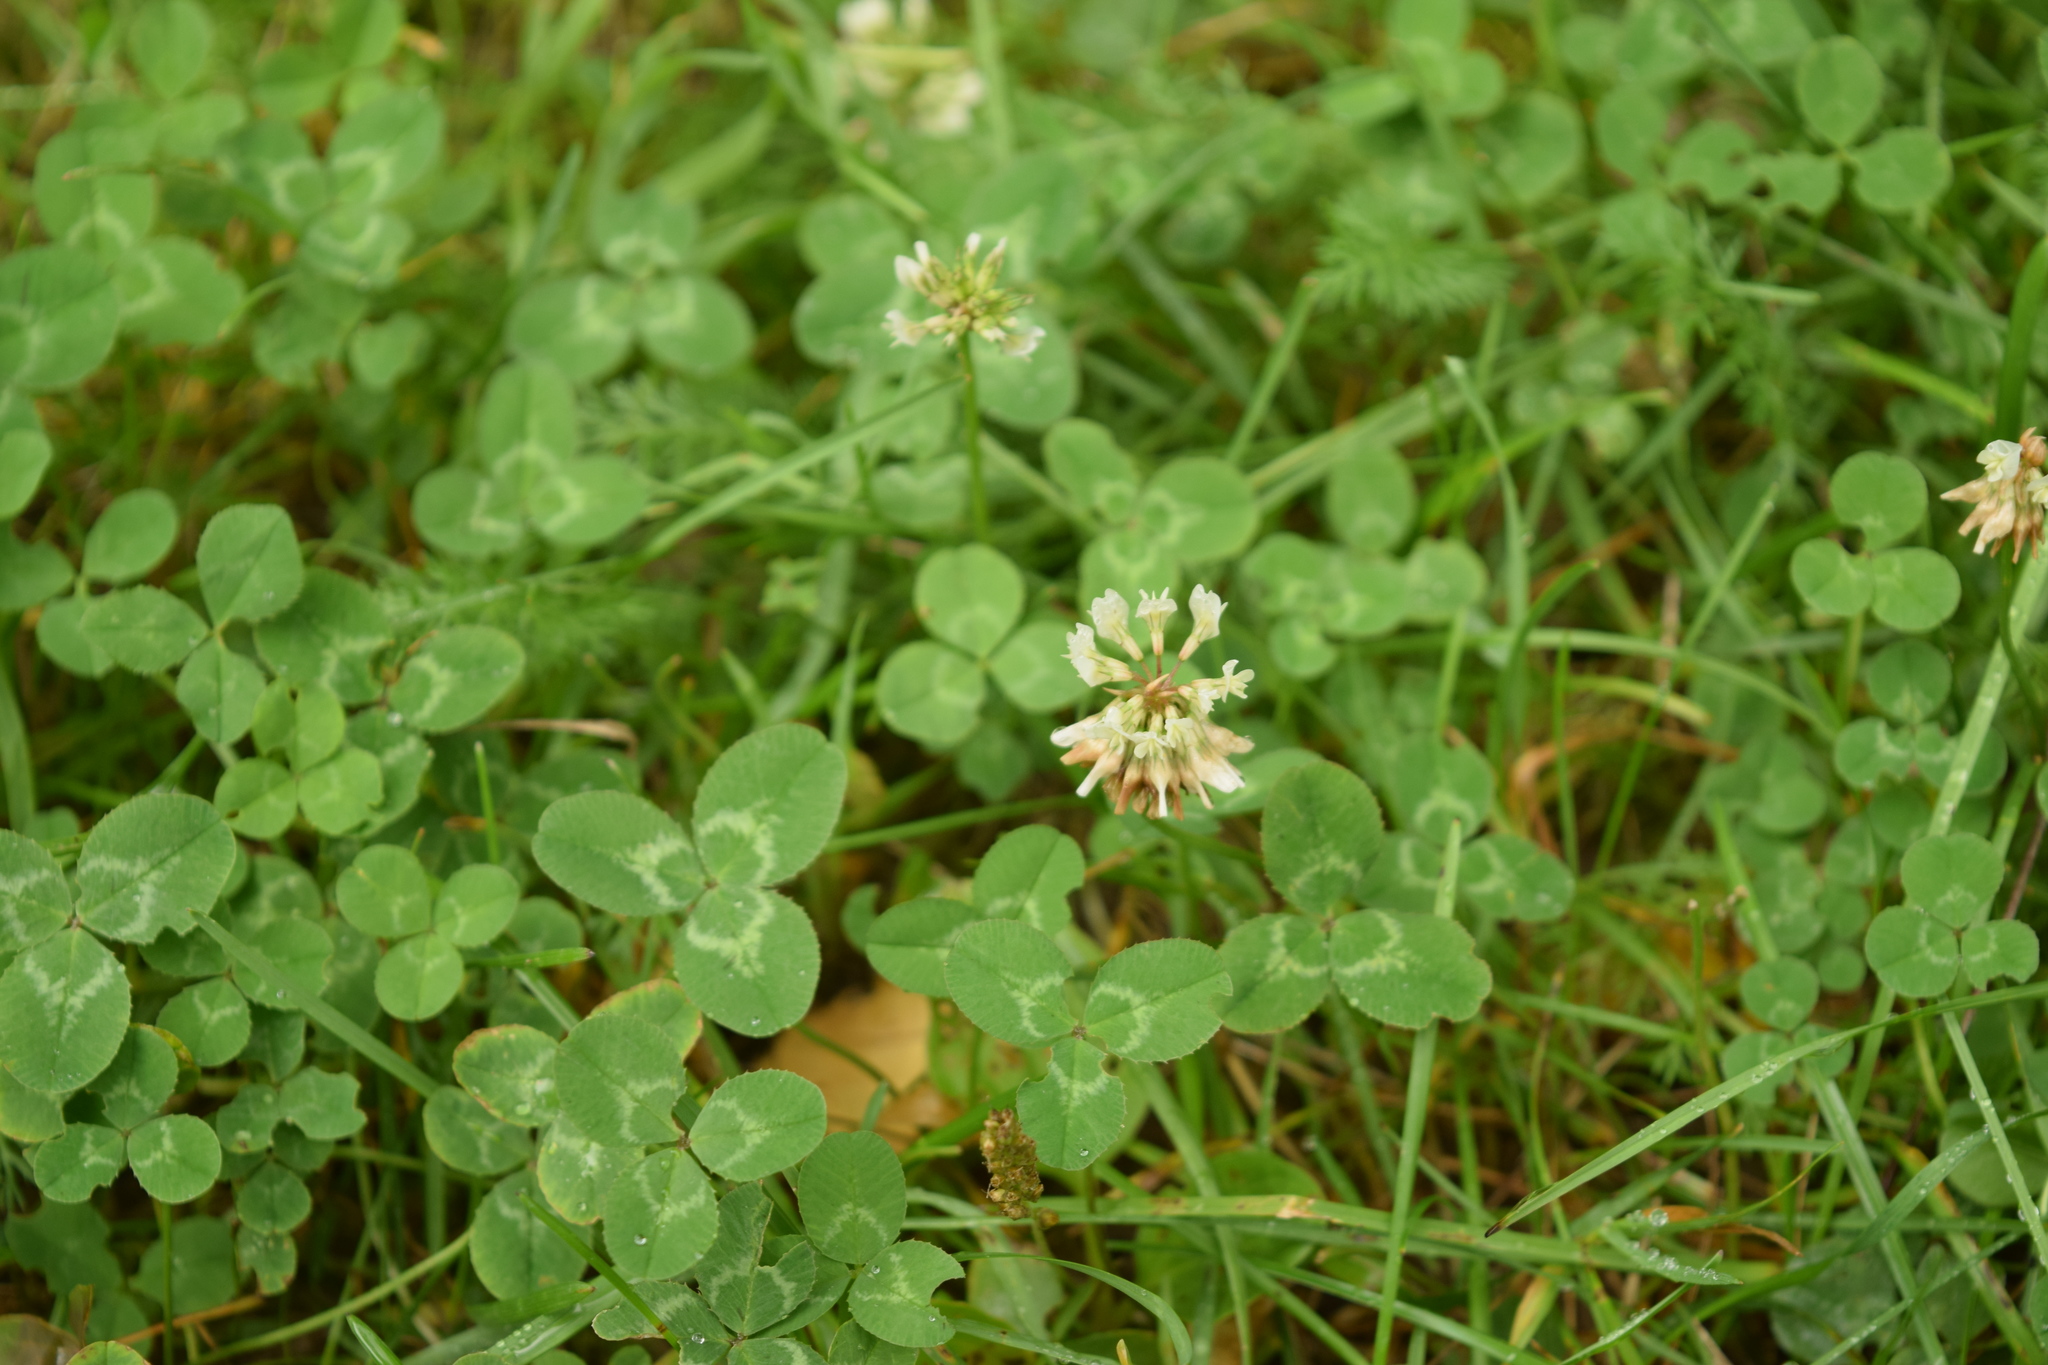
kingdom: Plantae
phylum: Tracheophyta
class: Magnoliopsida
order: Fabales
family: Fabaceae
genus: Trifolium
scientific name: Trifolium repens
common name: White clover
